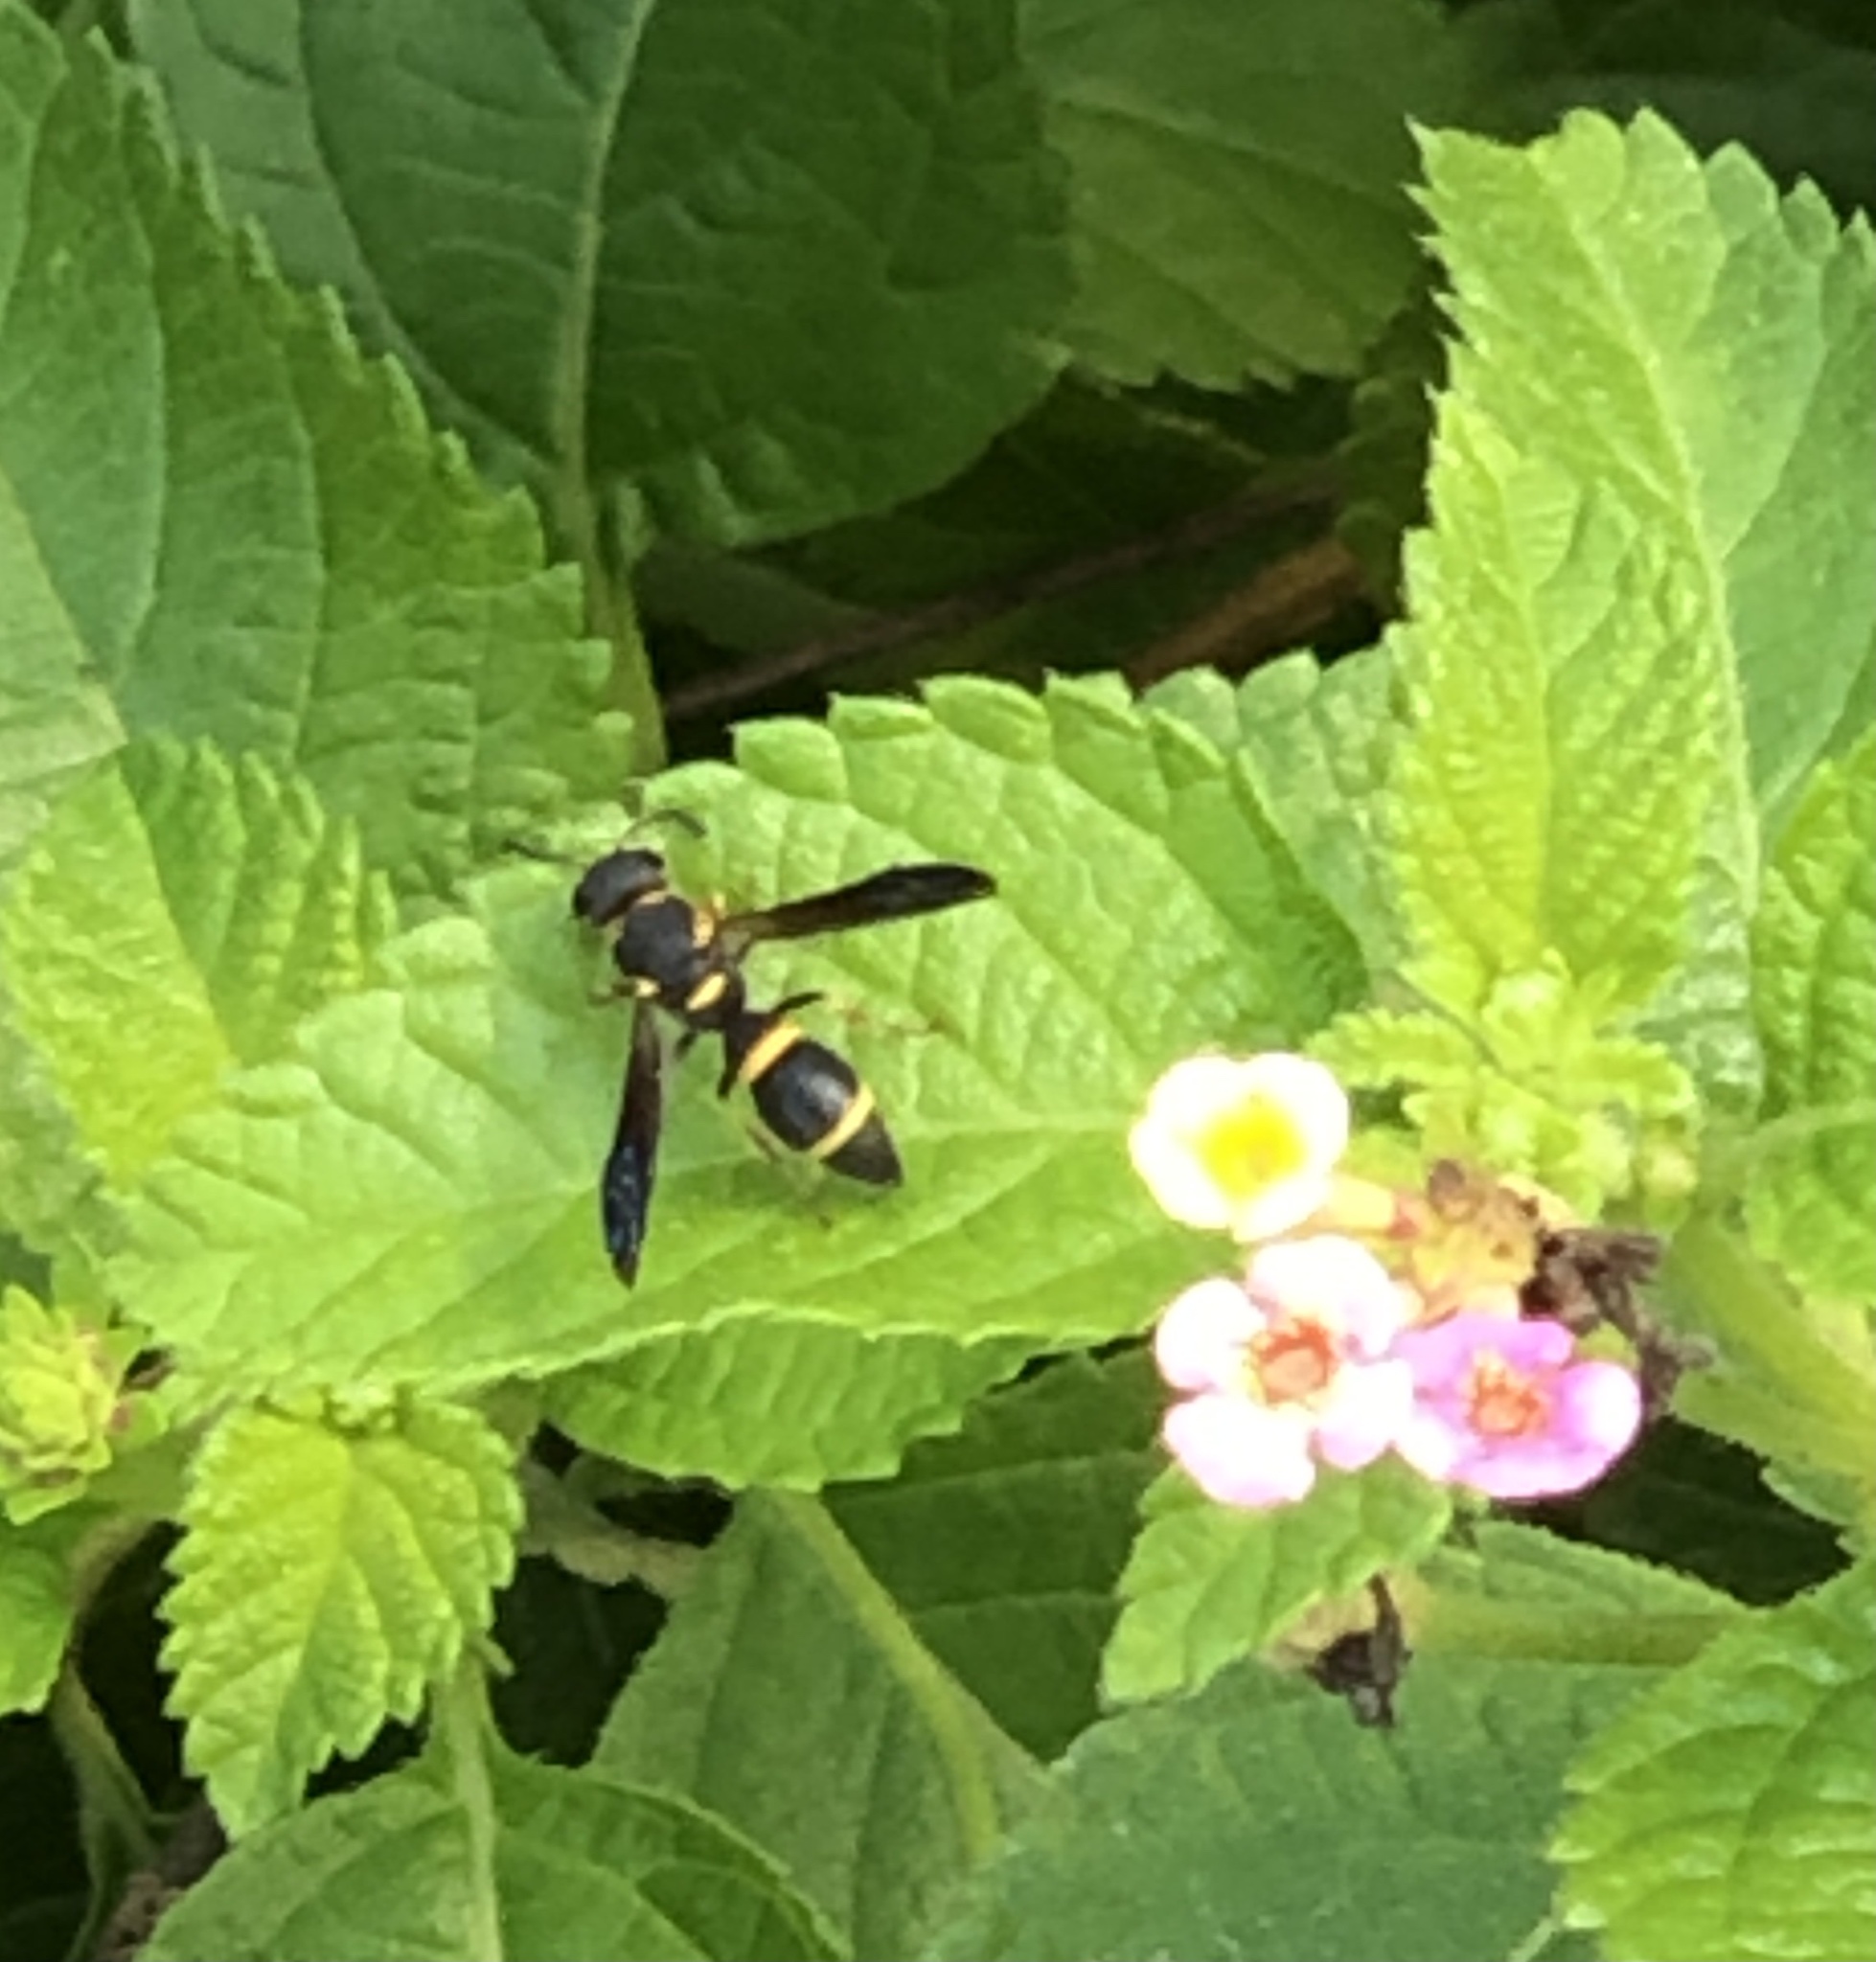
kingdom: Animalia
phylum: Arthropoda
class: Insecta
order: Hymenoptera
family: Eumenidae
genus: Parancistrocerus
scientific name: Parancistrocerus perennis
